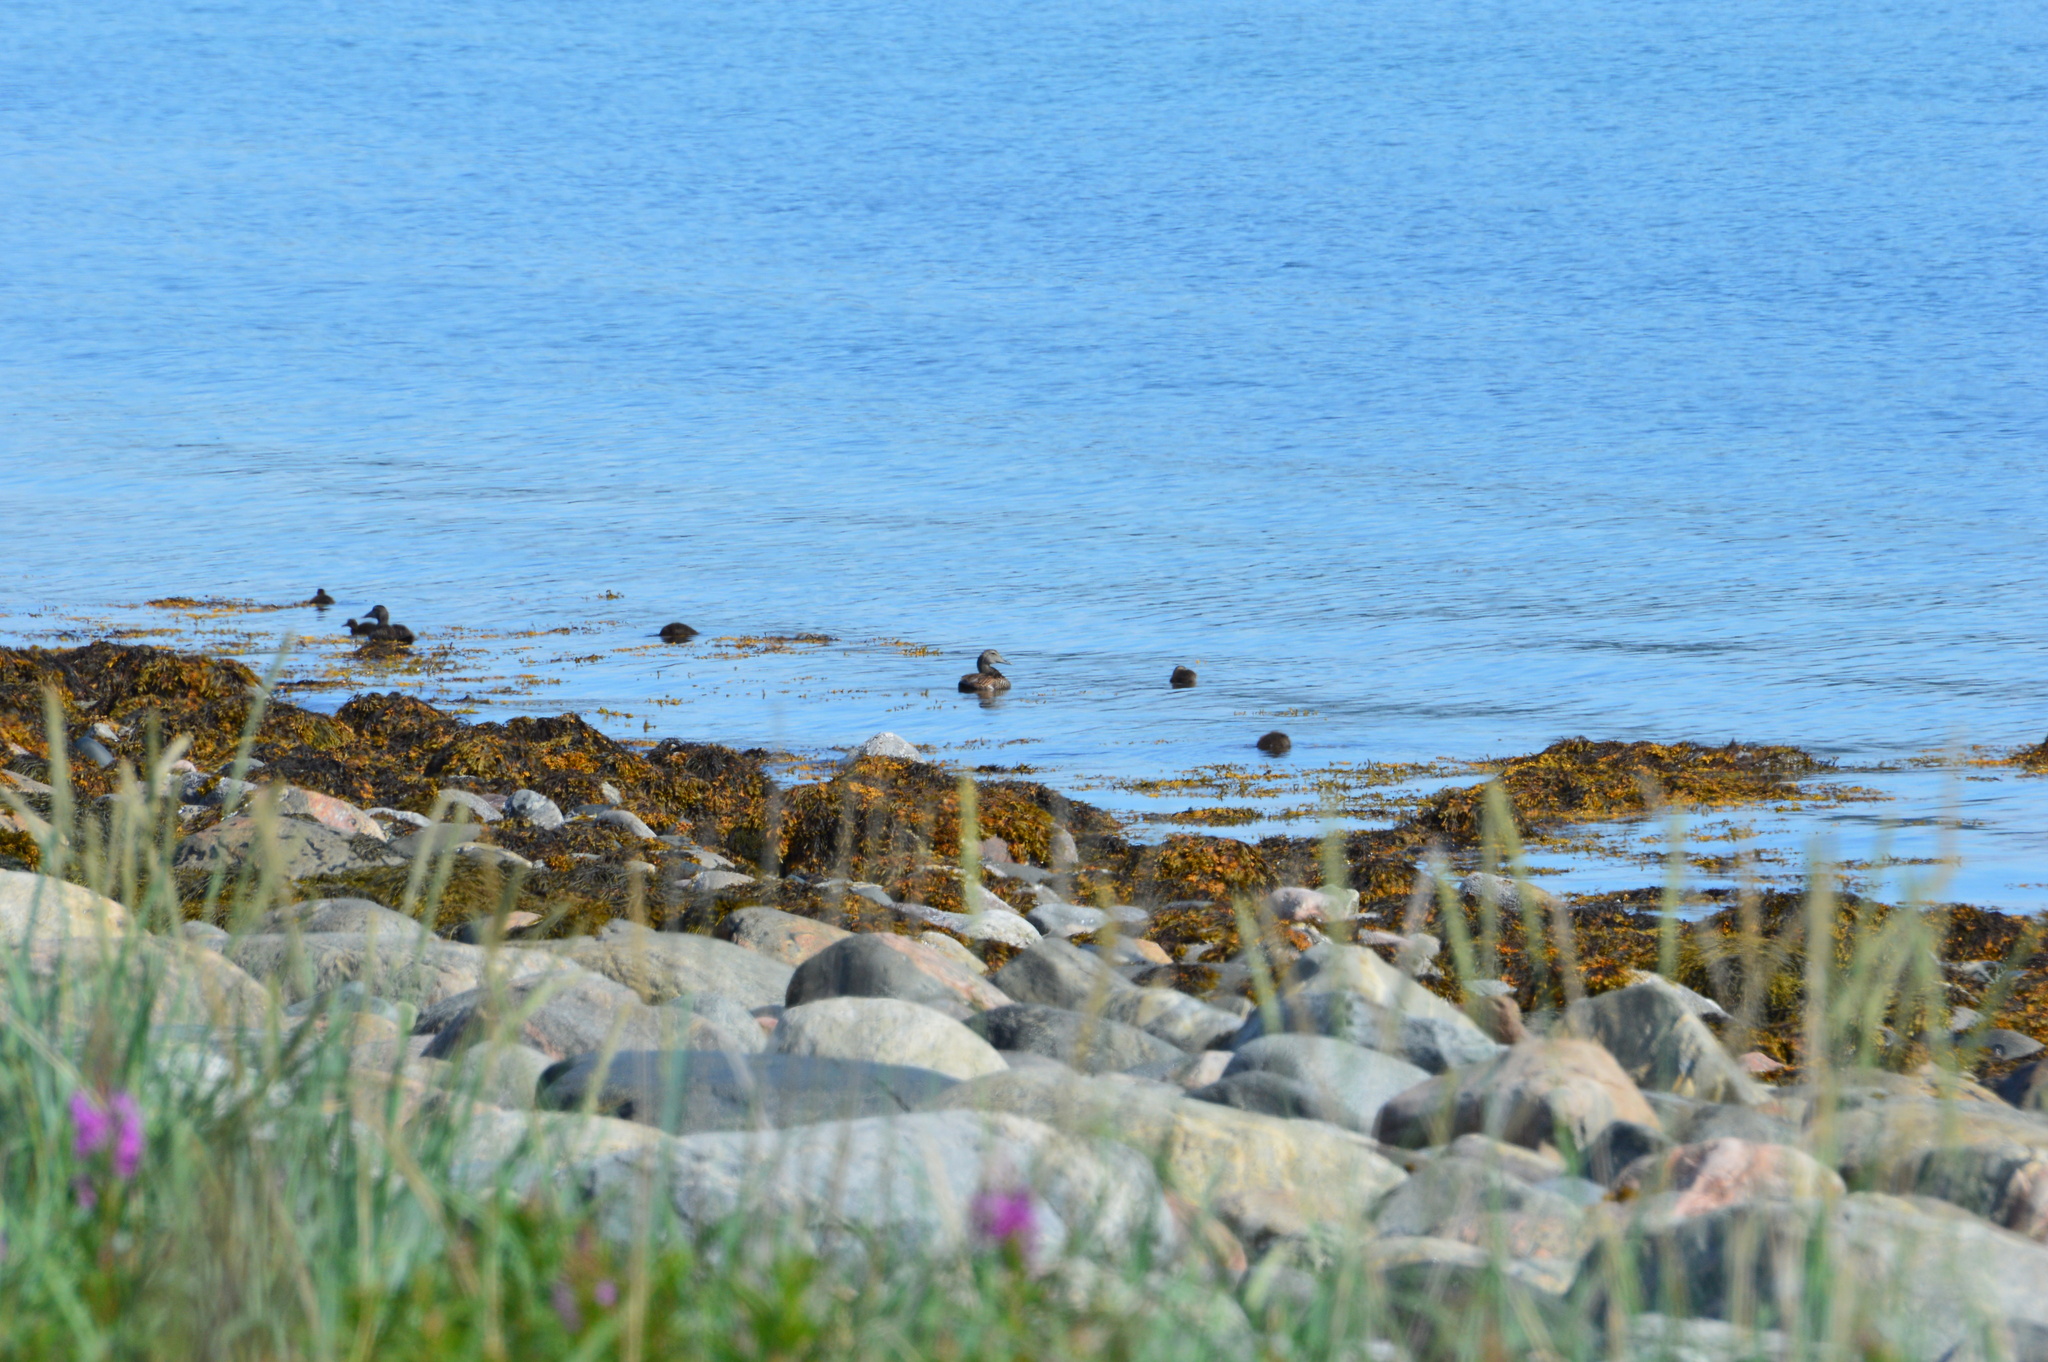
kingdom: Animalia
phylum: Chordata
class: Aves
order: Anseriformes
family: Anatidae
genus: Somateria
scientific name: Somateria mollissima
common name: Common eider
